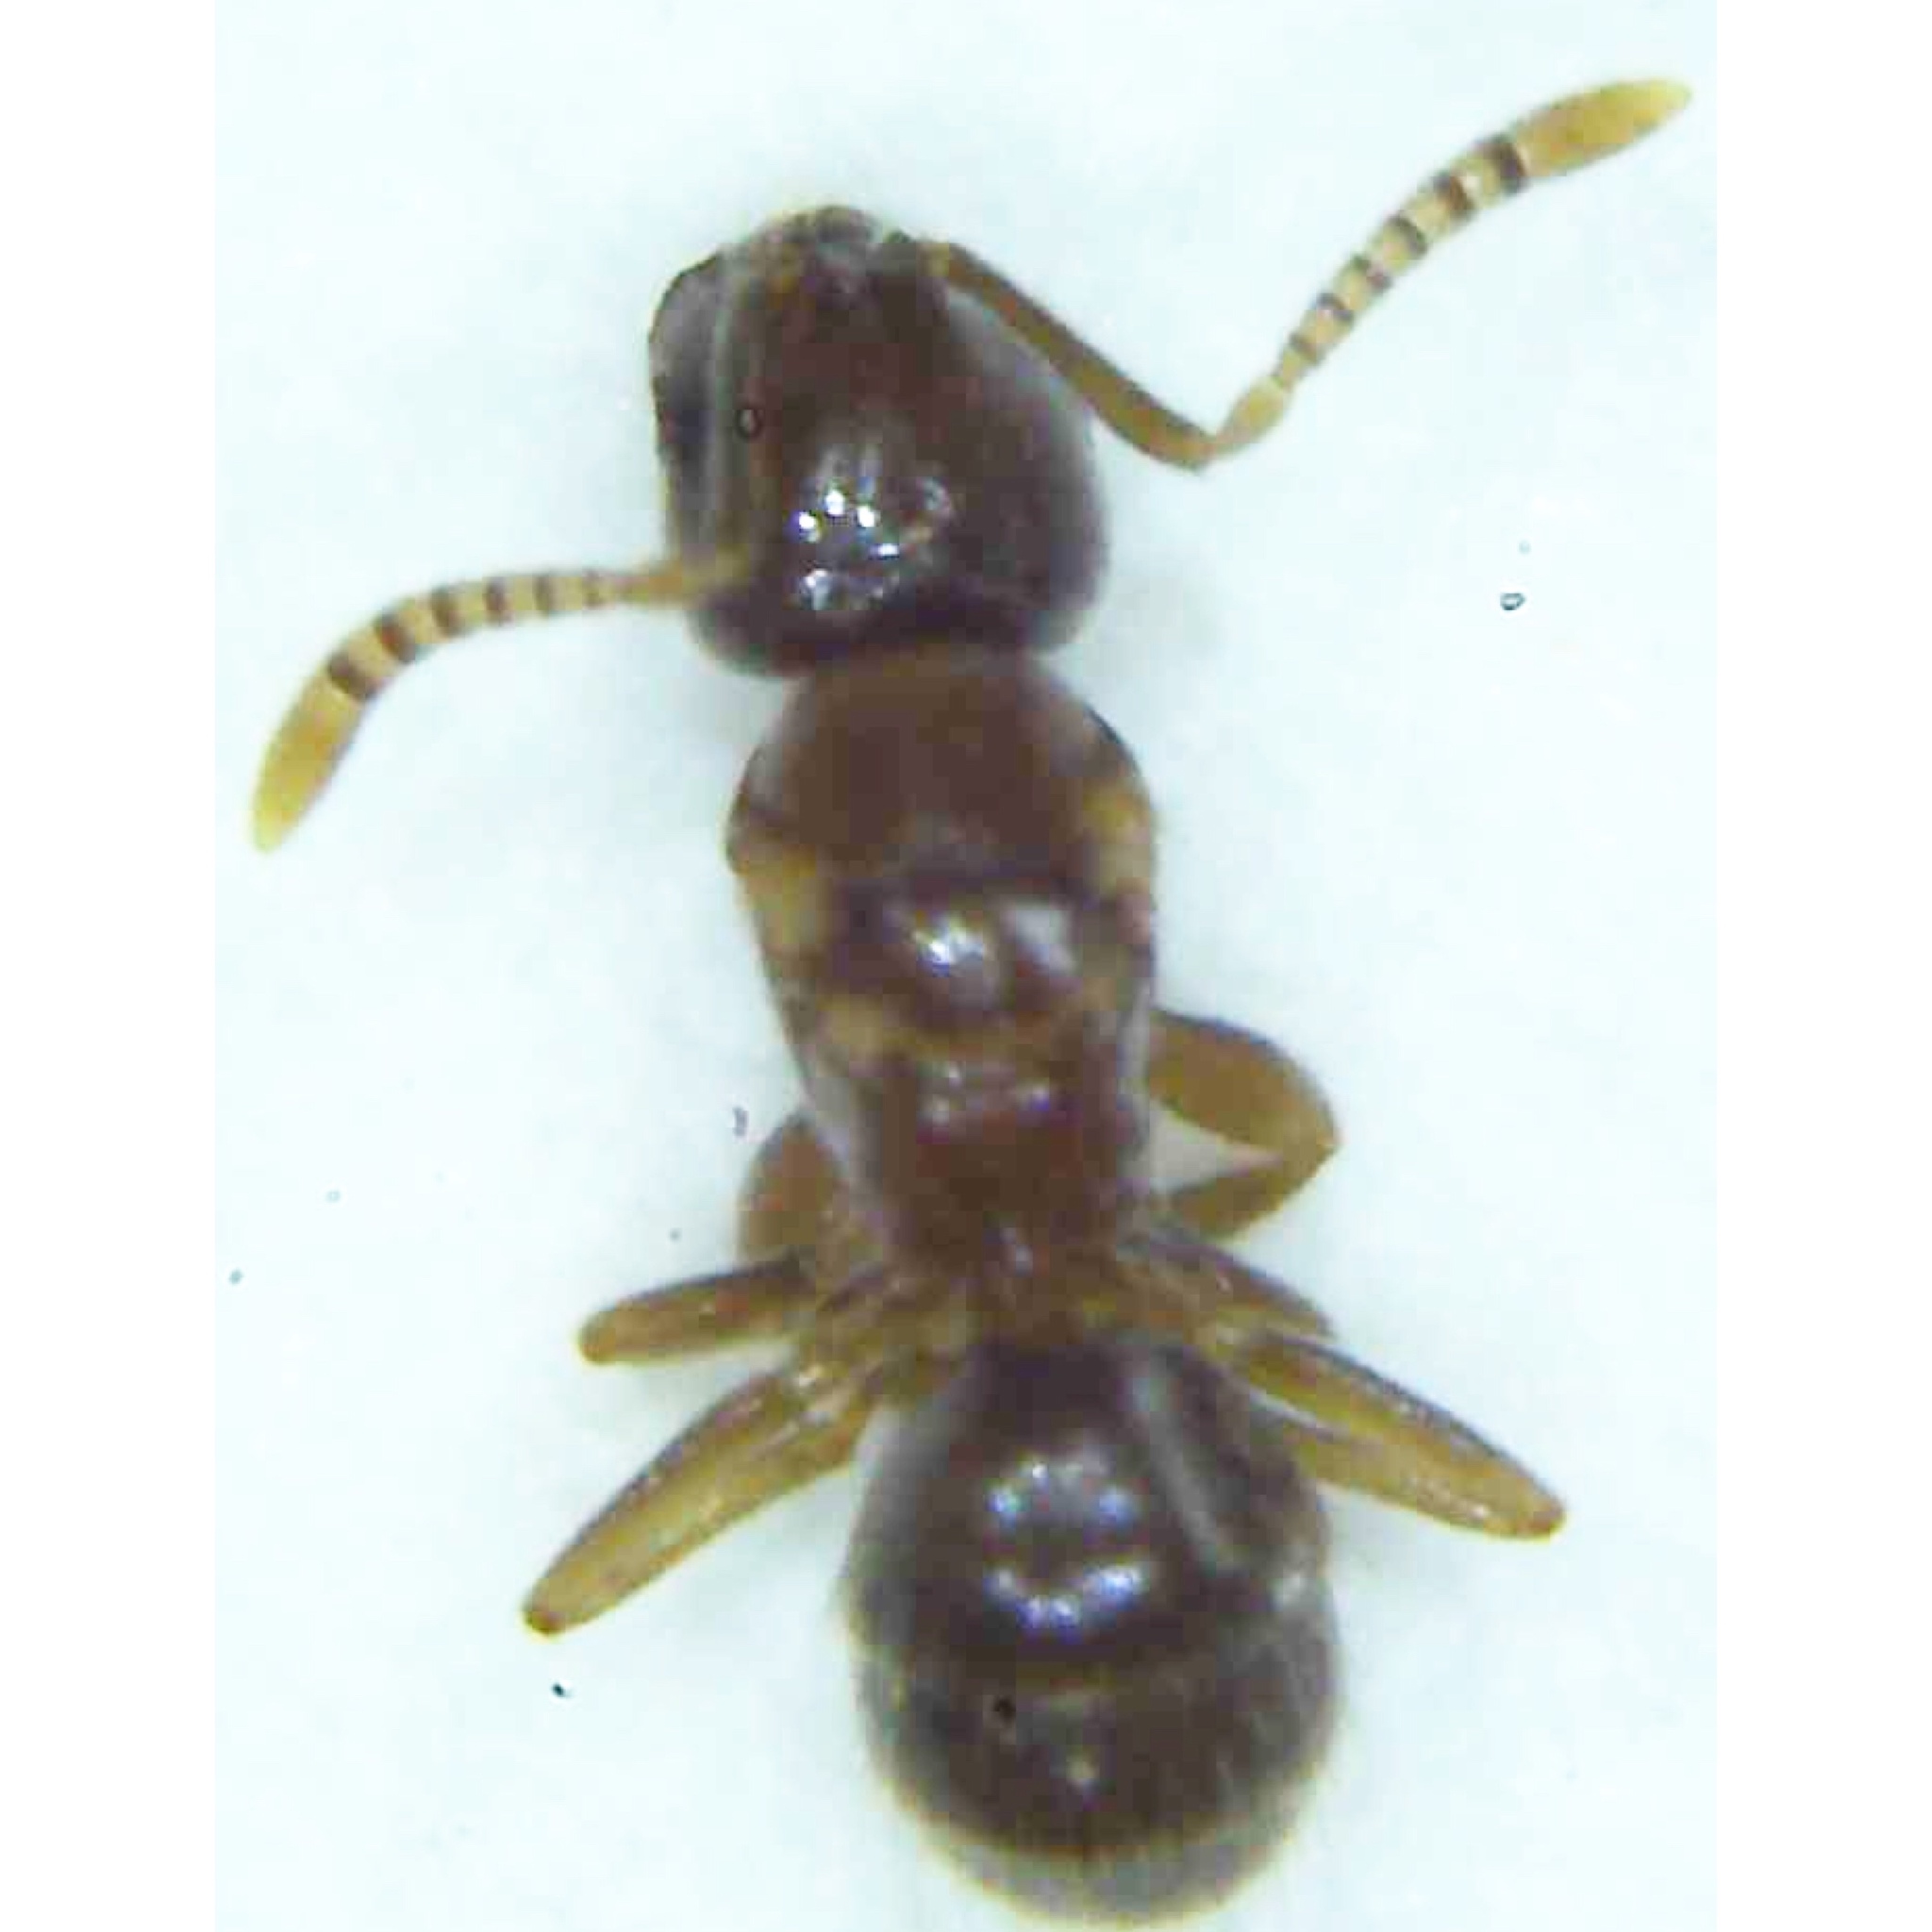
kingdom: Animalia
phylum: Arthropoda
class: Insecta
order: Hymenoptera
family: Formicidae
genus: Brachymyrmex
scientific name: Brachymyrmex
